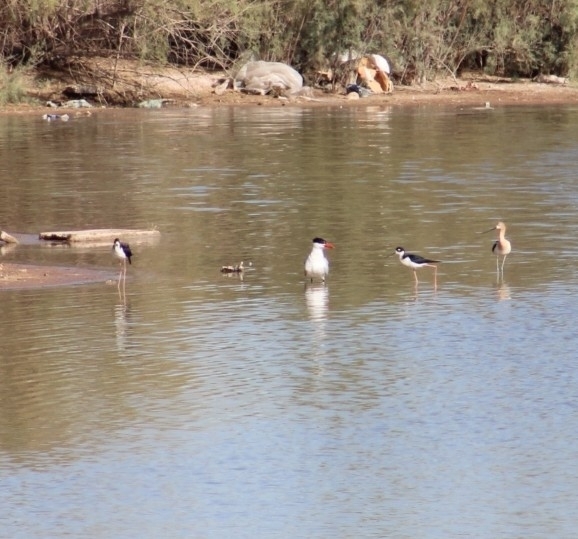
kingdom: Animalia
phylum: Chordata
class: Aves
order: Charadriiformes
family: Laridae
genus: Hydroprogne
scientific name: Hydroprogne caspia
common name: Caspian tern
